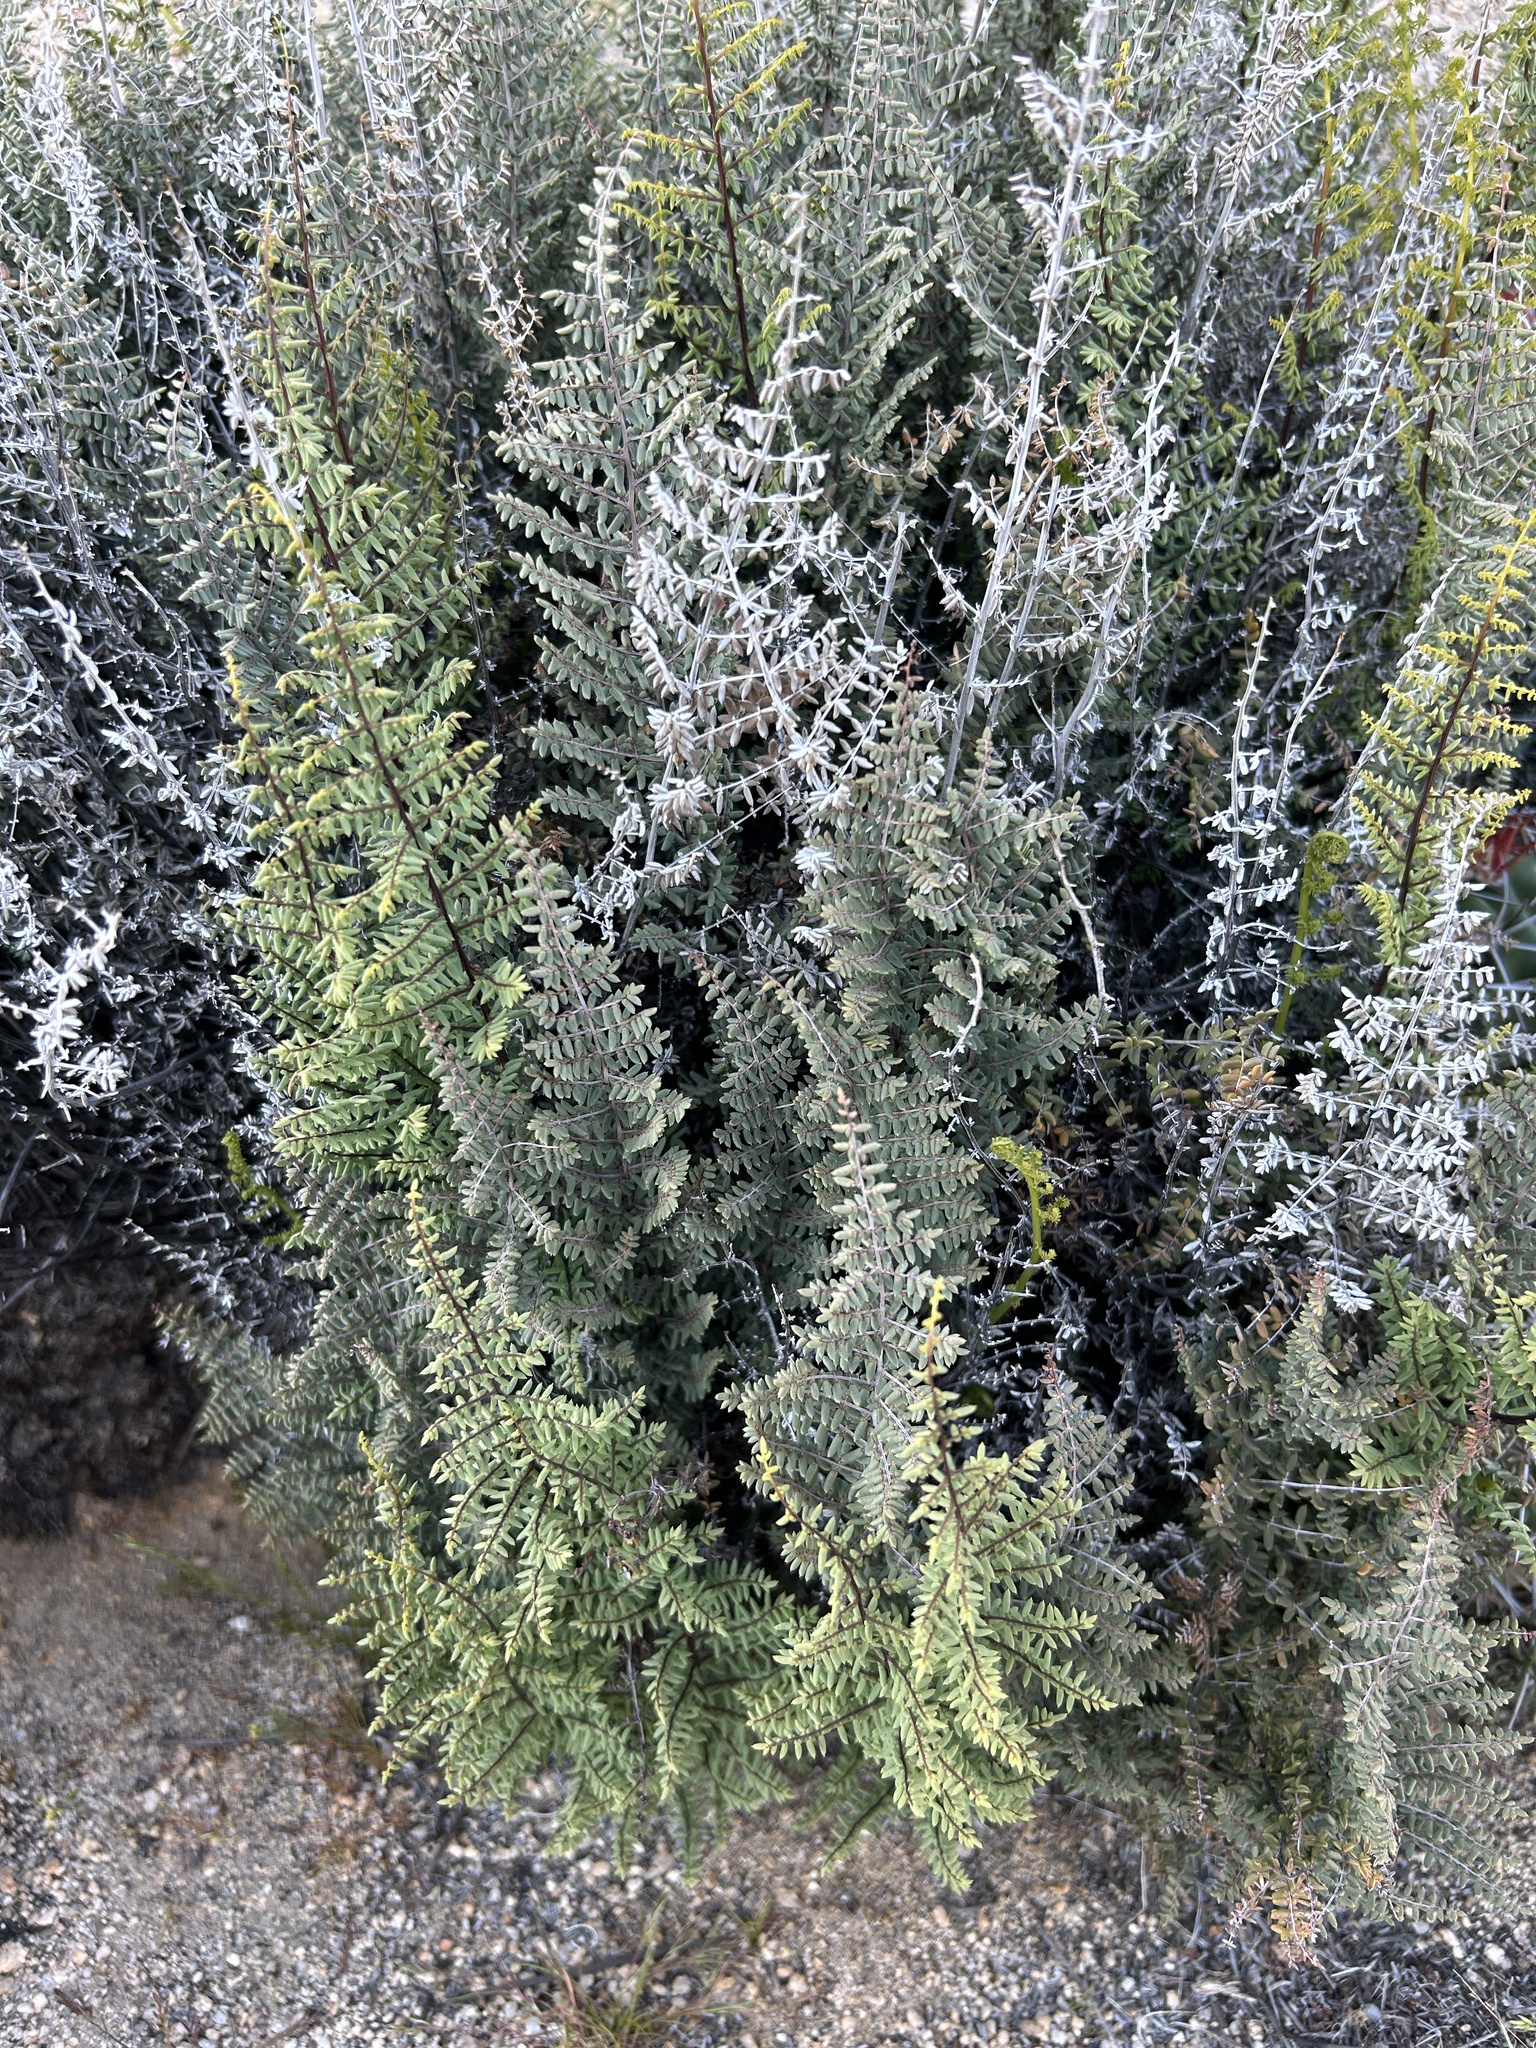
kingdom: Plantae
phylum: Tracheophyta
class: Polypodiopsida
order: Polypodiales
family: Pteridaceae
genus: Pellaea
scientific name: Pellaea mucronata
